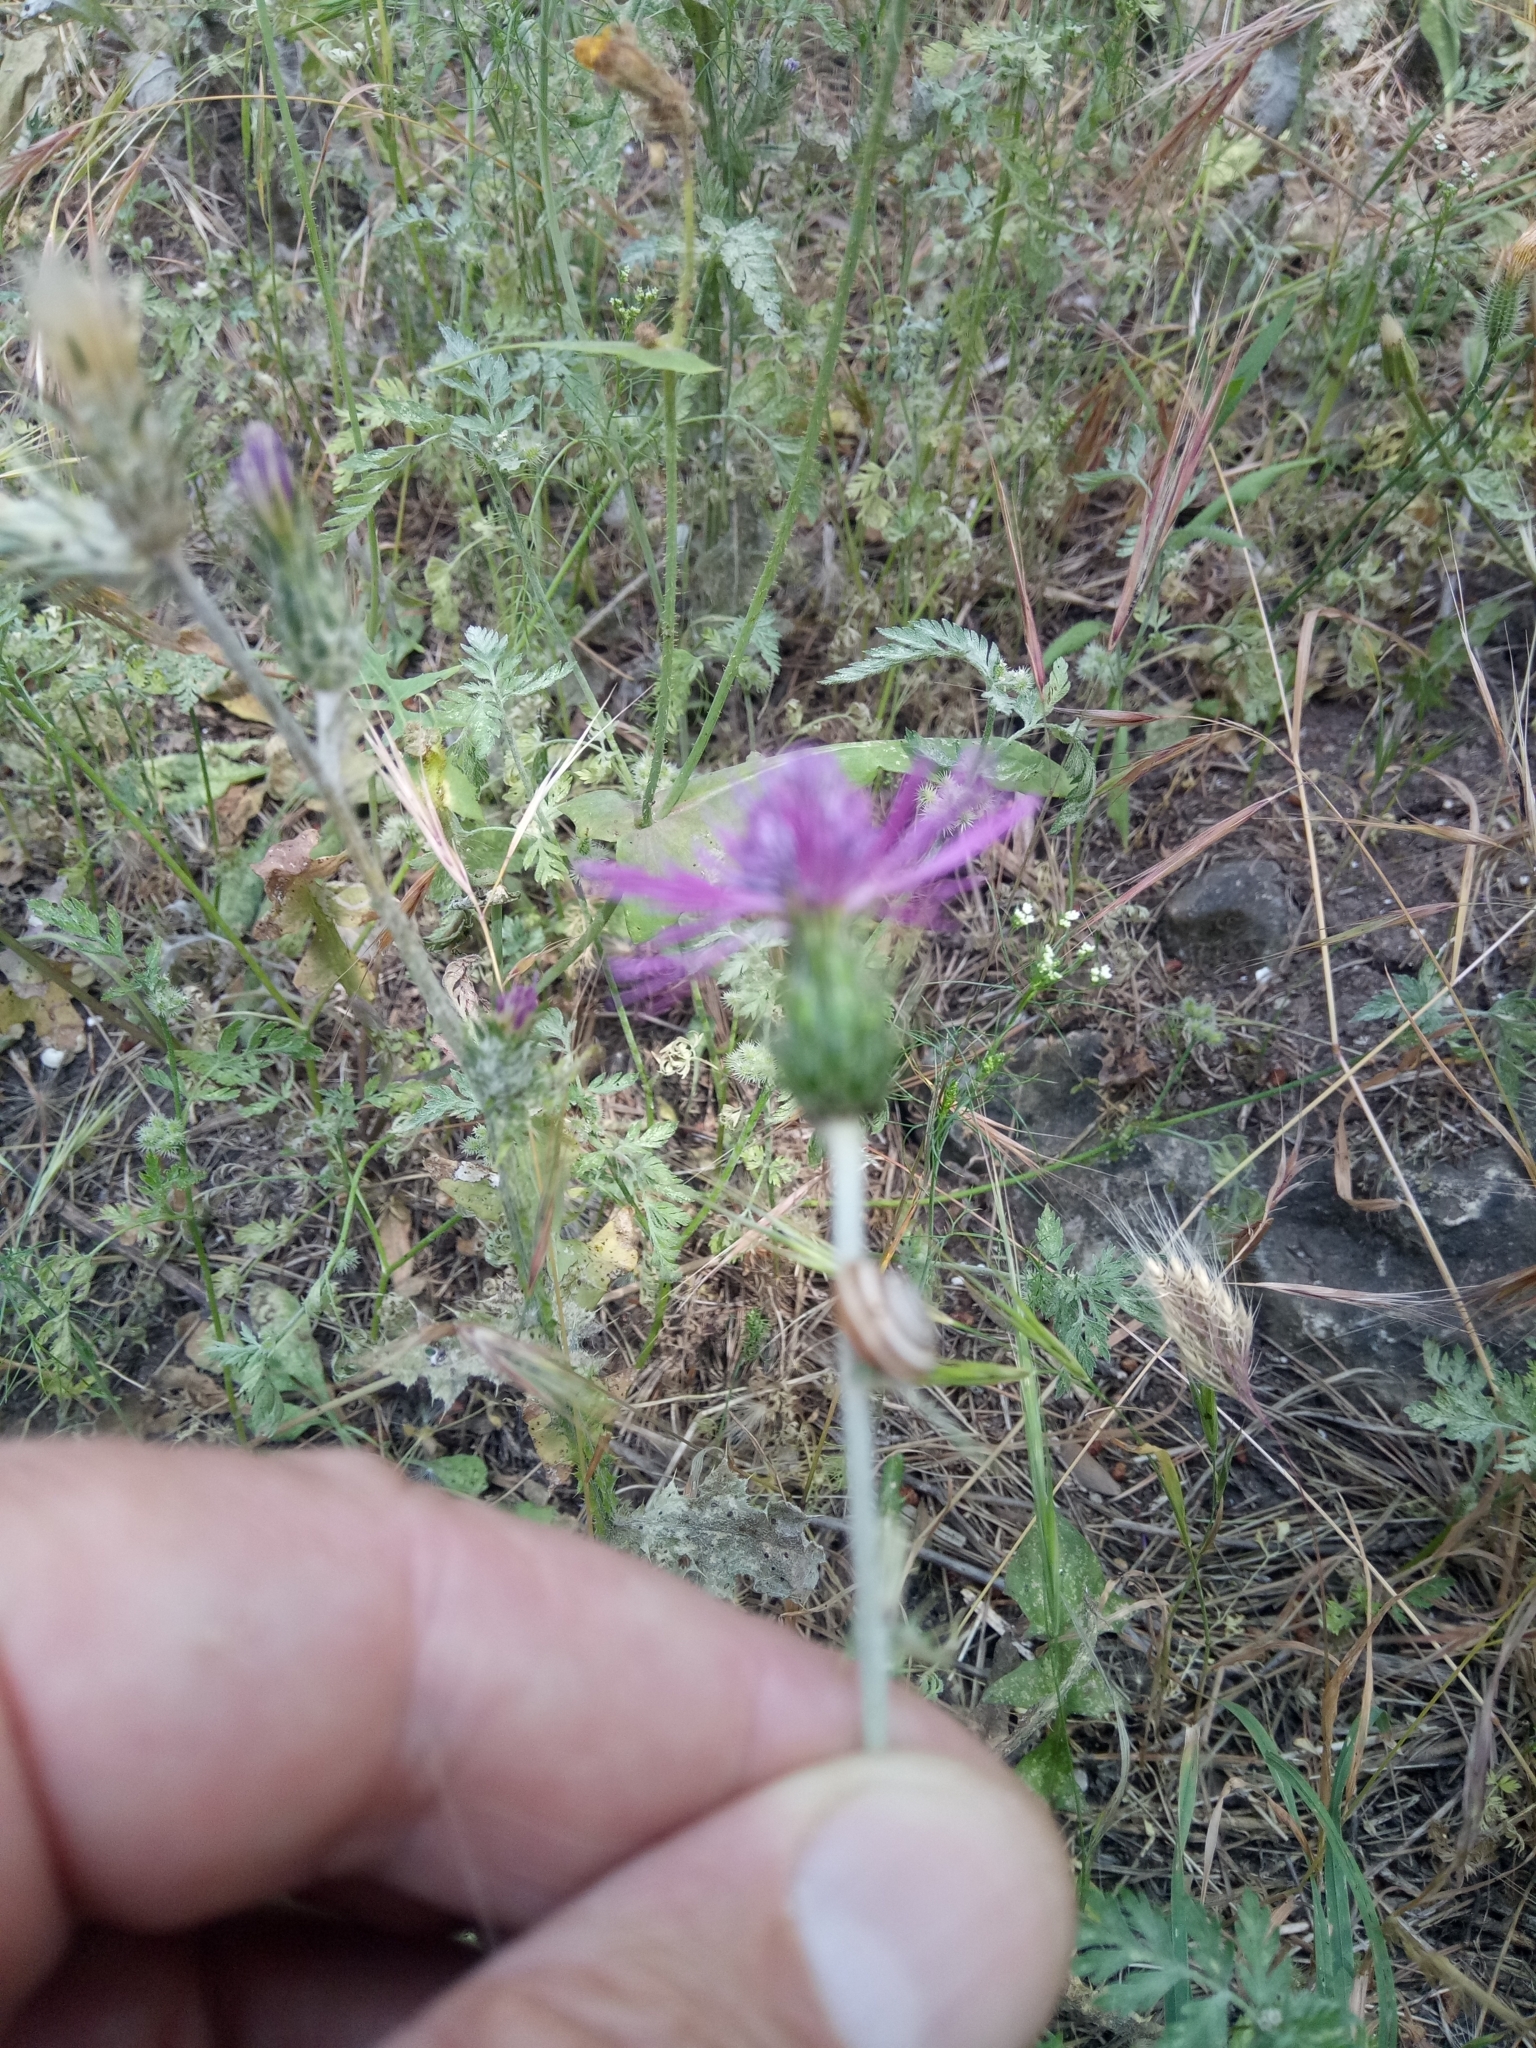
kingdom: Plantae
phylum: Tracheophyta
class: Magnoliopsida
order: Asterales
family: Asteraceae
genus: Galactites
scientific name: Galactites tomentosa
